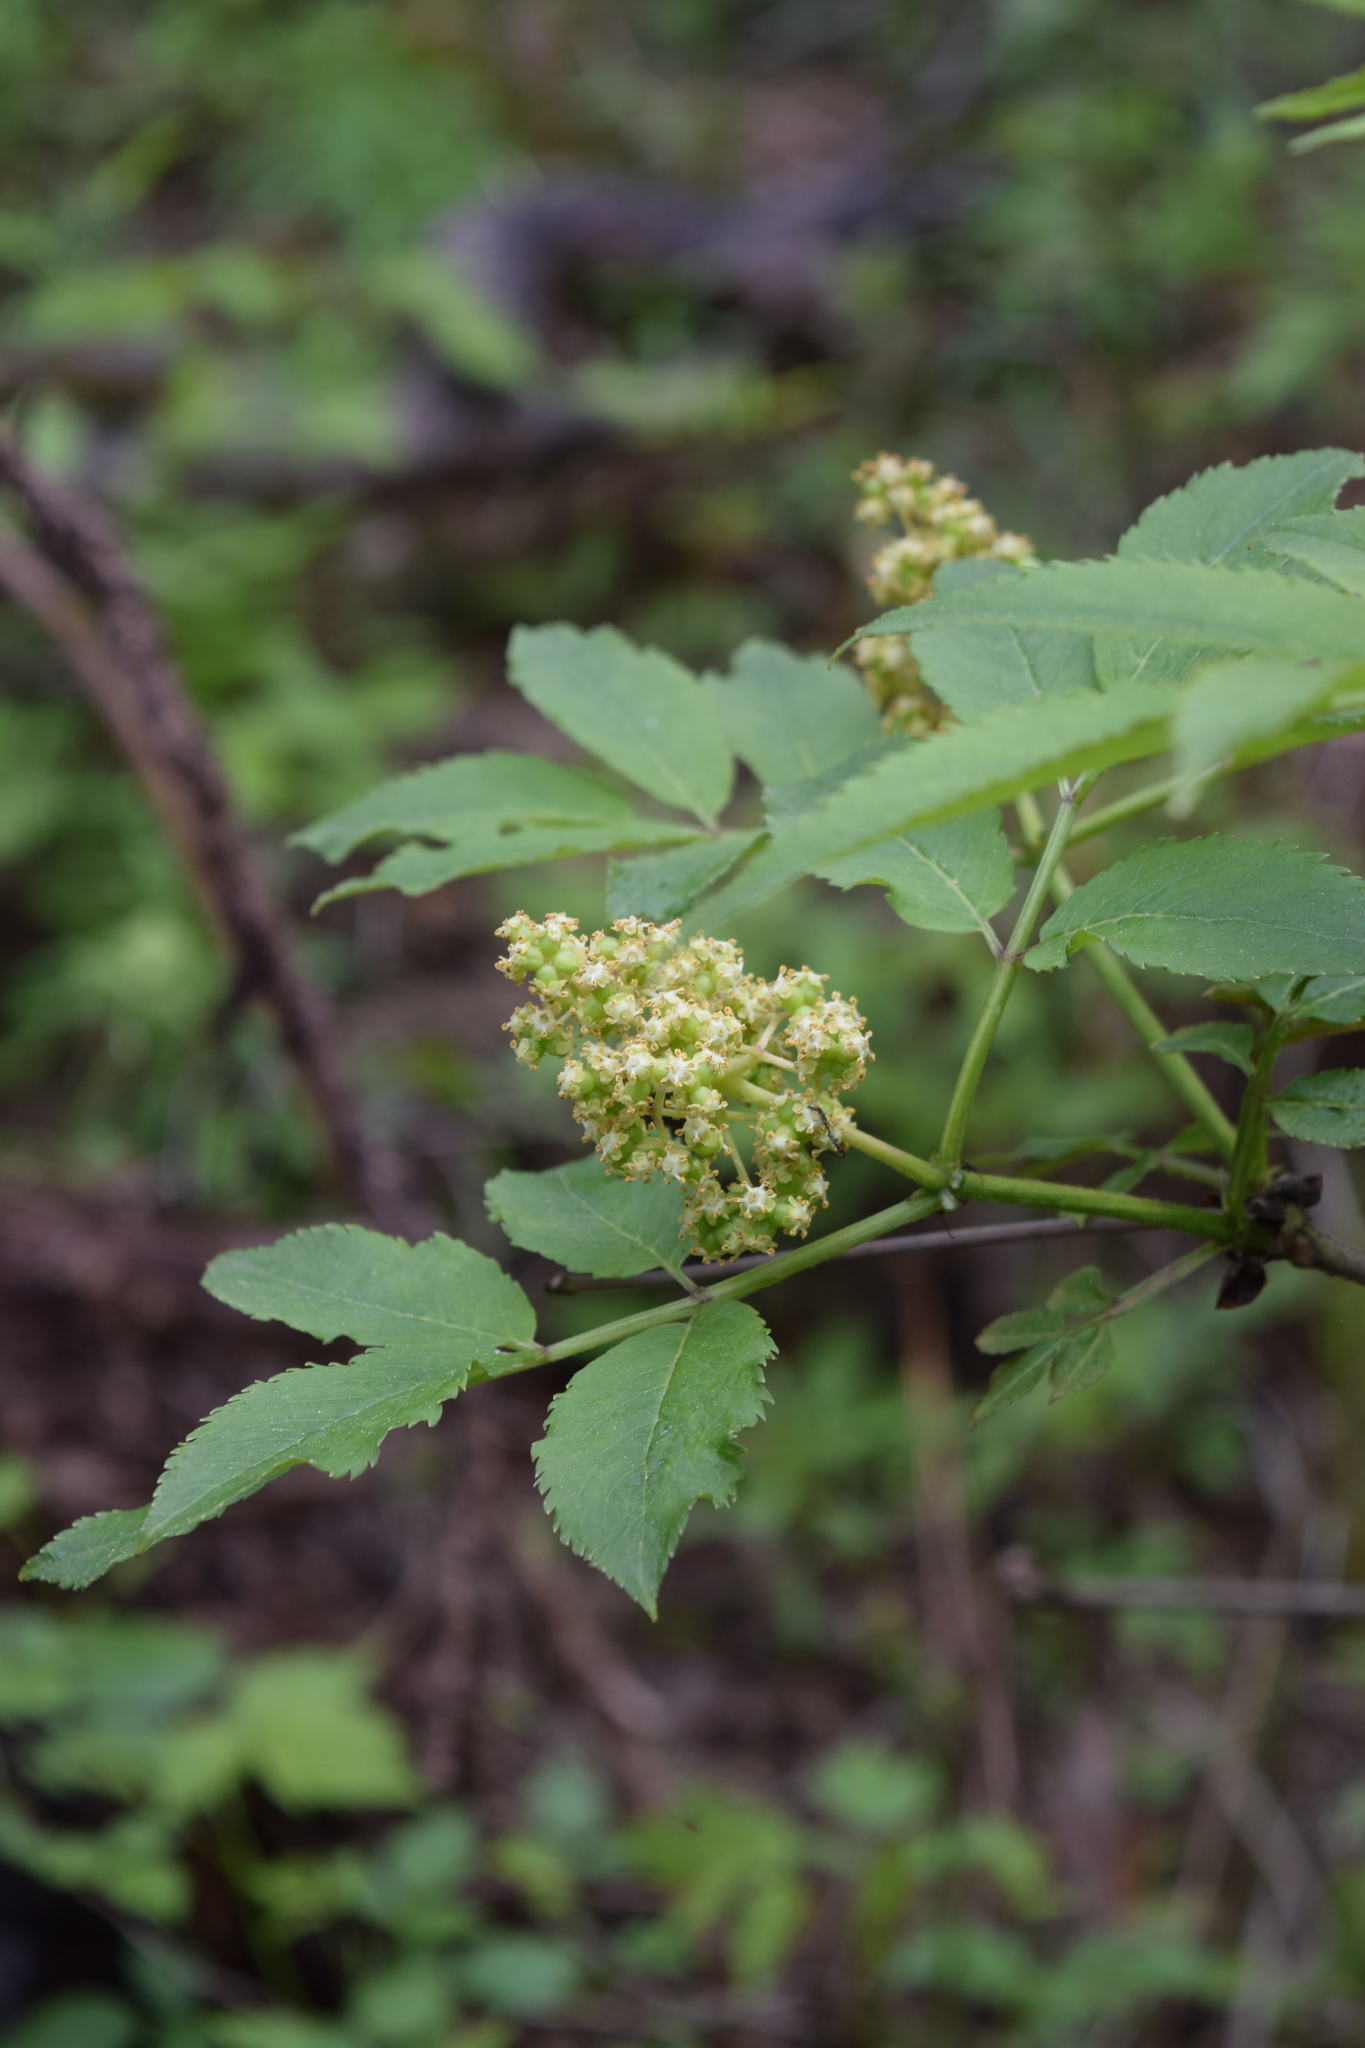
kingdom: Plantae
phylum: Tracheophyta
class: Magnoliopsida
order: Dipsacales
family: Viburnaceae
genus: Sambucus
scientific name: Sambucus racemosa
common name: Red-berried elder
